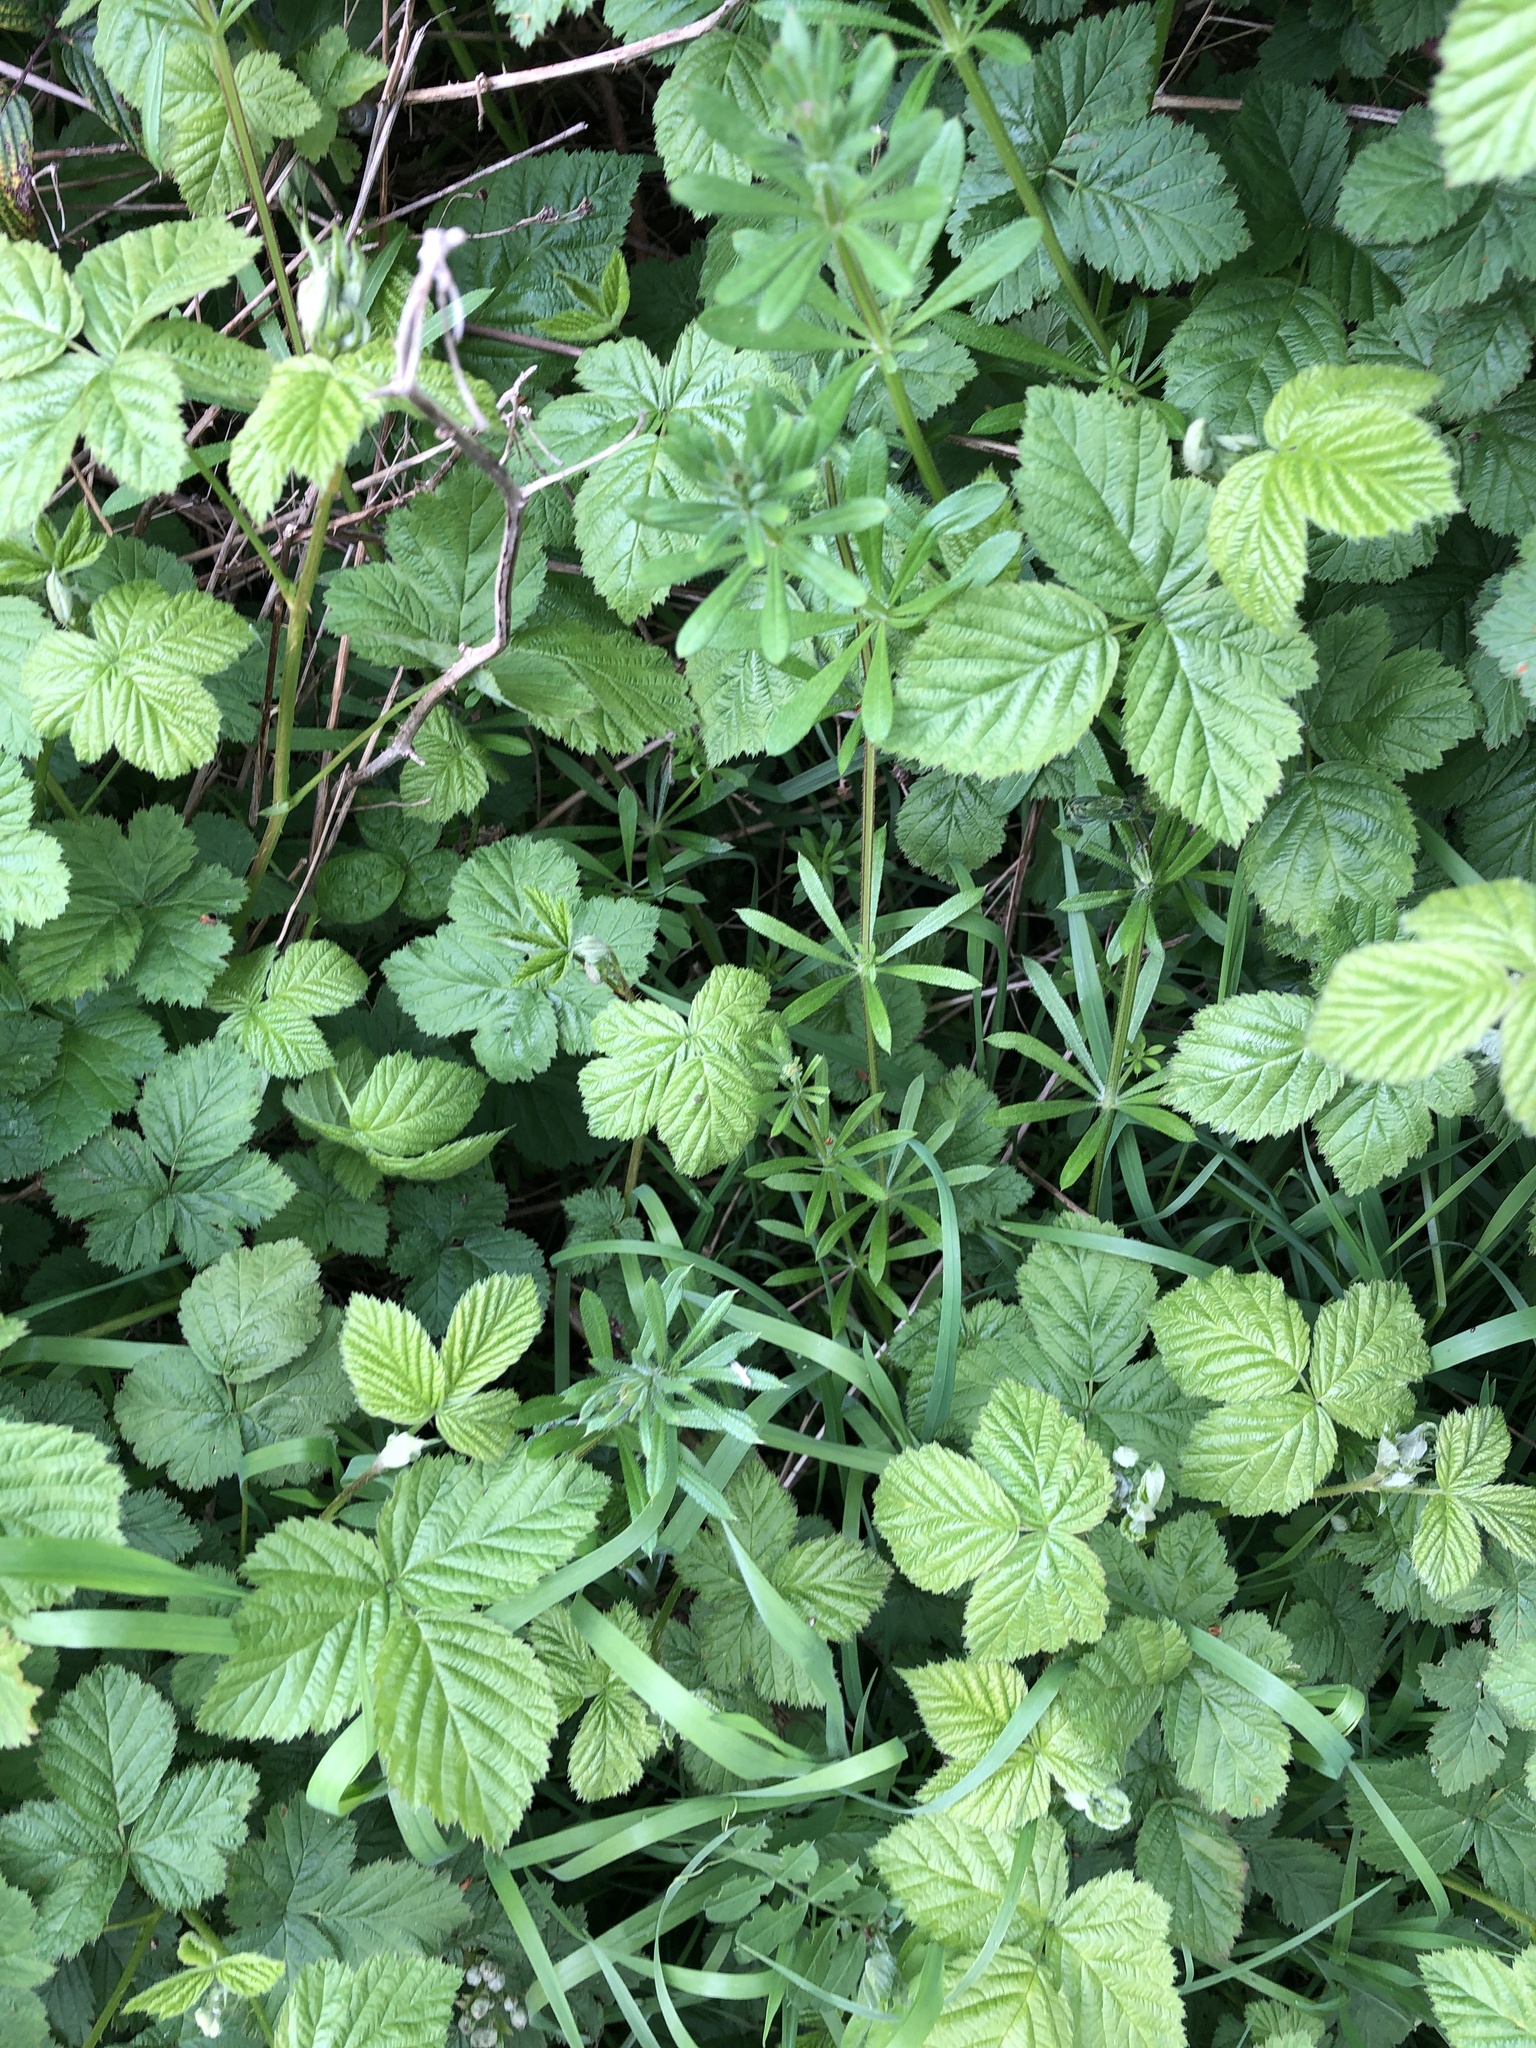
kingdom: Plantae
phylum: Tracheophyta
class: Magnoliopsida
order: Gentianales
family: Rubiaceae
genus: Galium
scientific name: Galium aparine
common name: Cleavers
